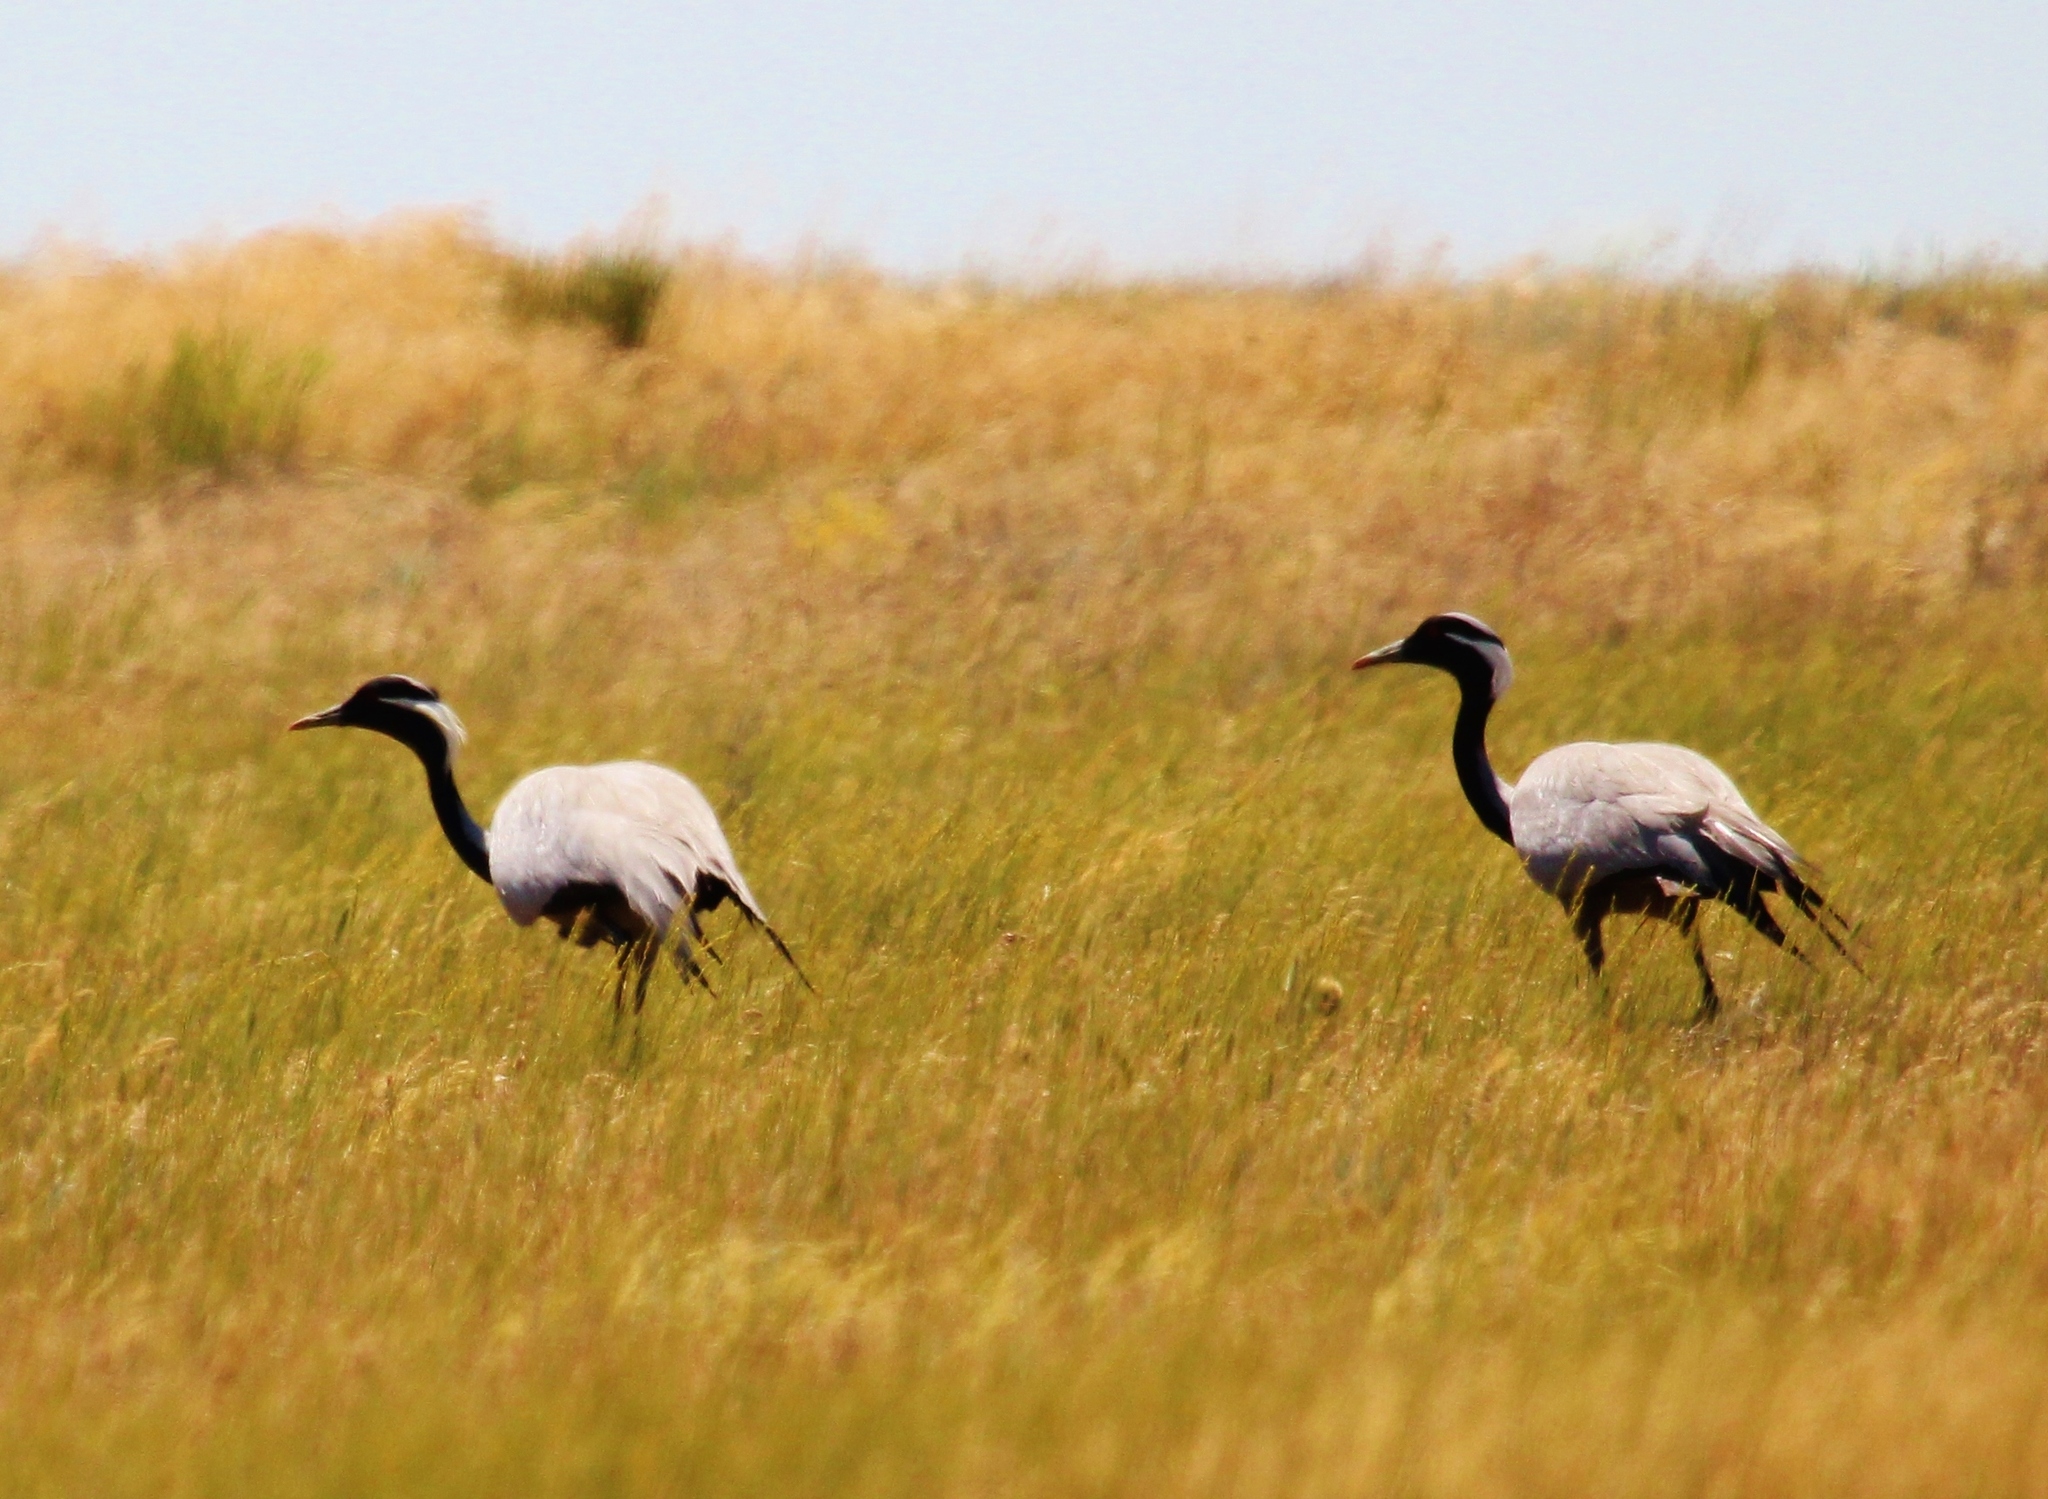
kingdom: Animalia
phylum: Chordata
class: Aves
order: Gruiformes
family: Gruidae
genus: Anthropoides
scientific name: Anthropoides virgo
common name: Demoiselle crane
